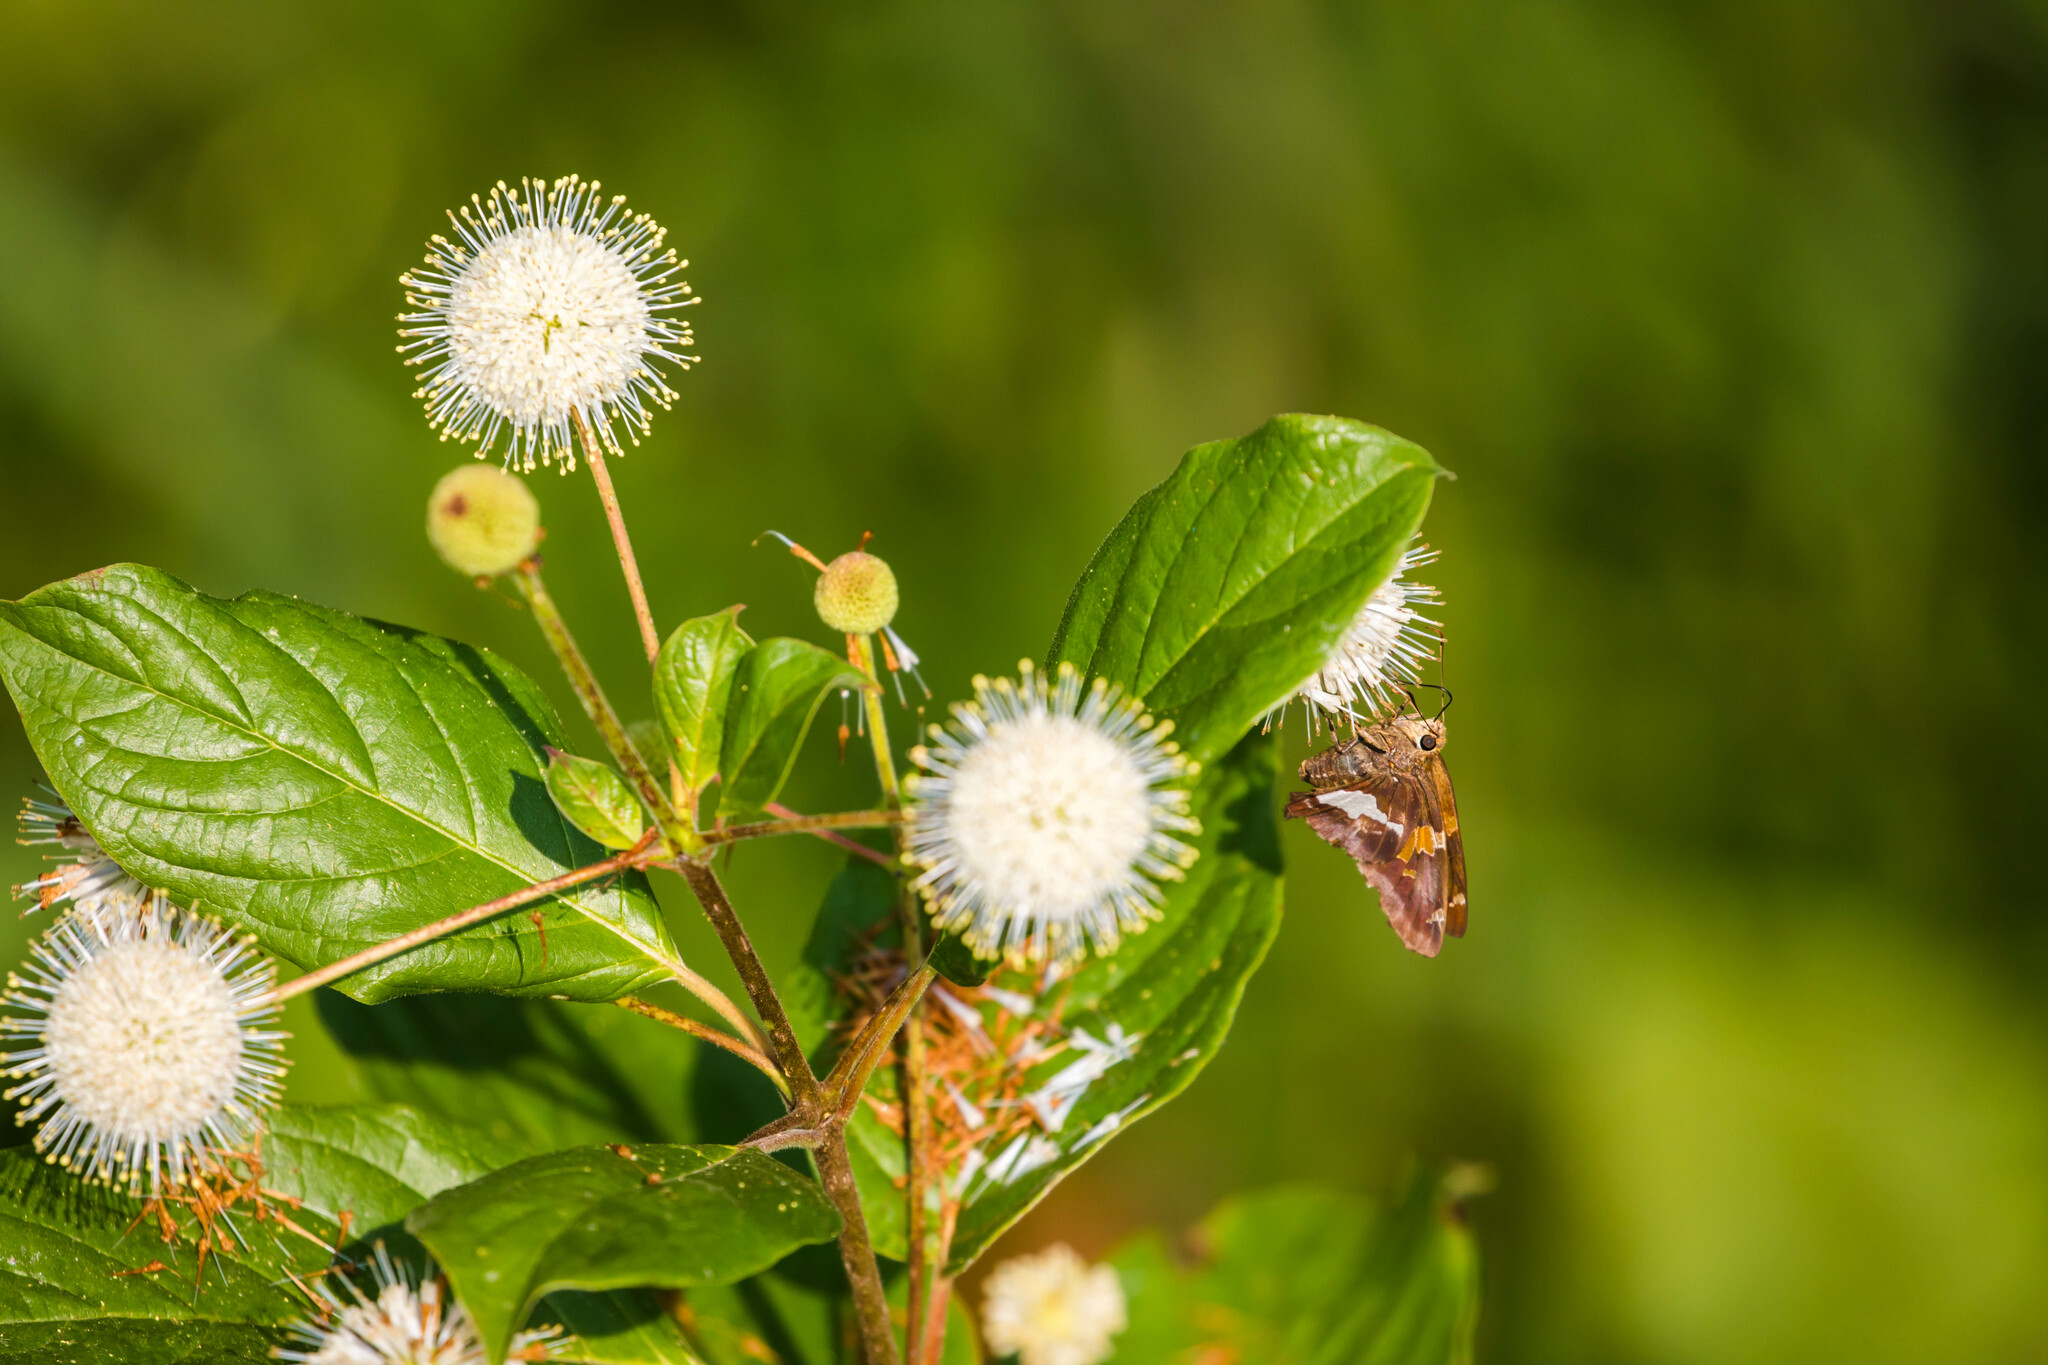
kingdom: Animalia
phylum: Arthropoda
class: Insecta
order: Lepidoptera
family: Hesperiidae
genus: Epargyreus
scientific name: Epargyreus clarus
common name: Silver-spotted skipper
